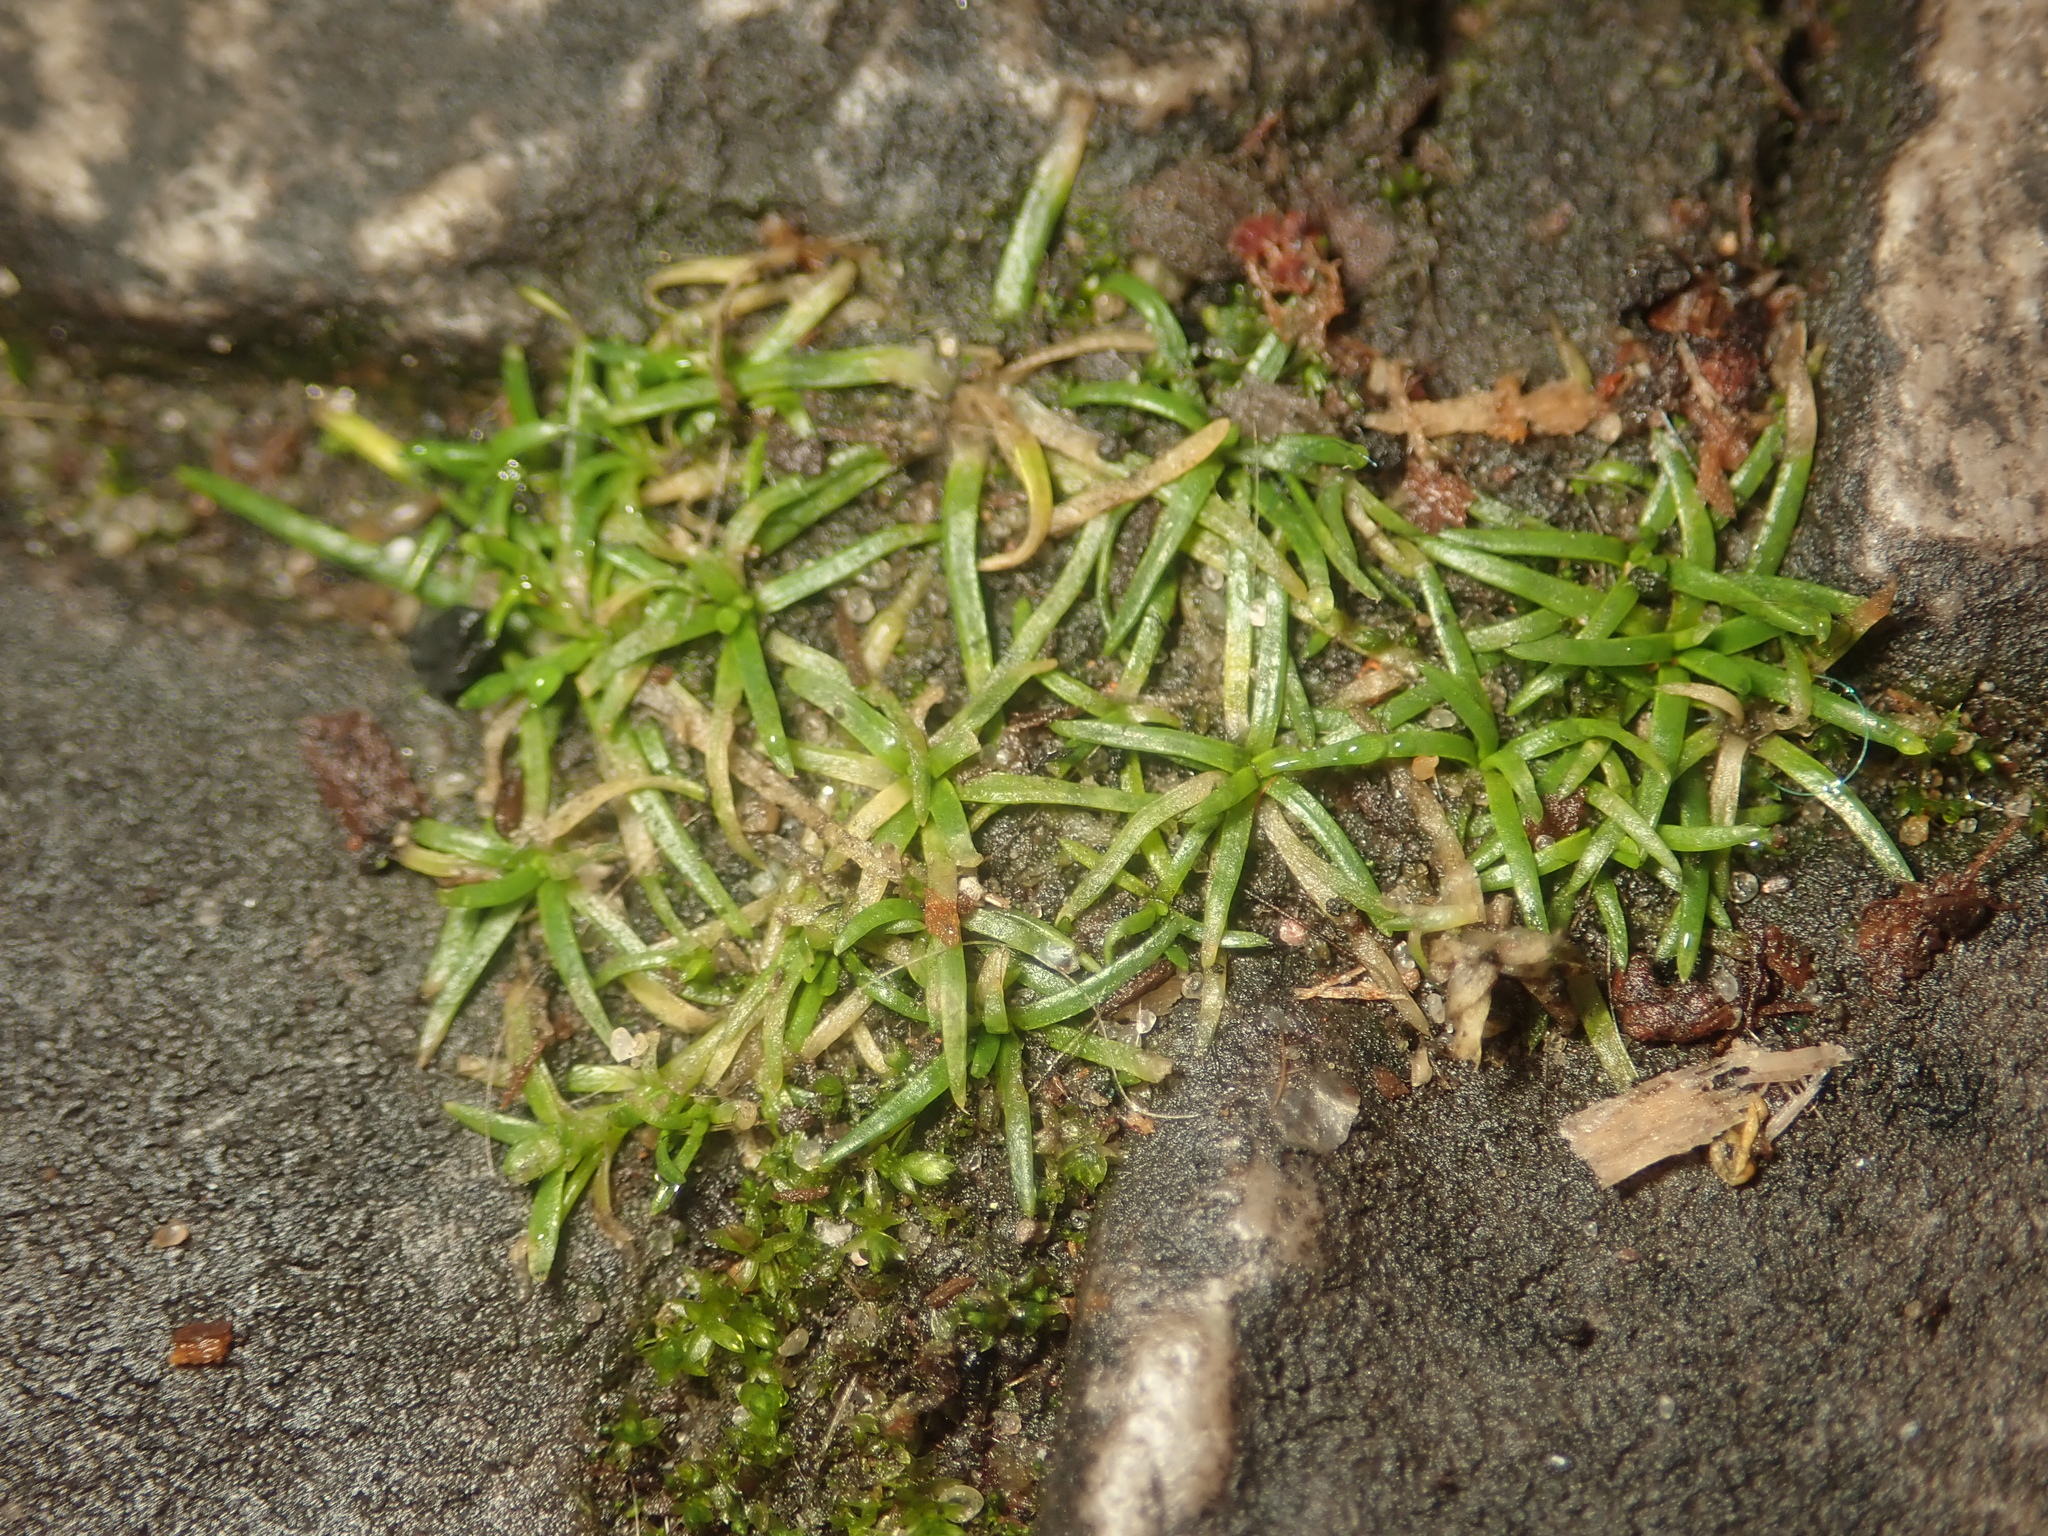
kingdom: Plantae
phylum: Tracheophyta
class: Magnoliopsida
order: Caryophyllales
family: Caryophyllaceae
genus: Sagina
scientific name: Sagina procumbens
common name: Procumbent pearlwort
